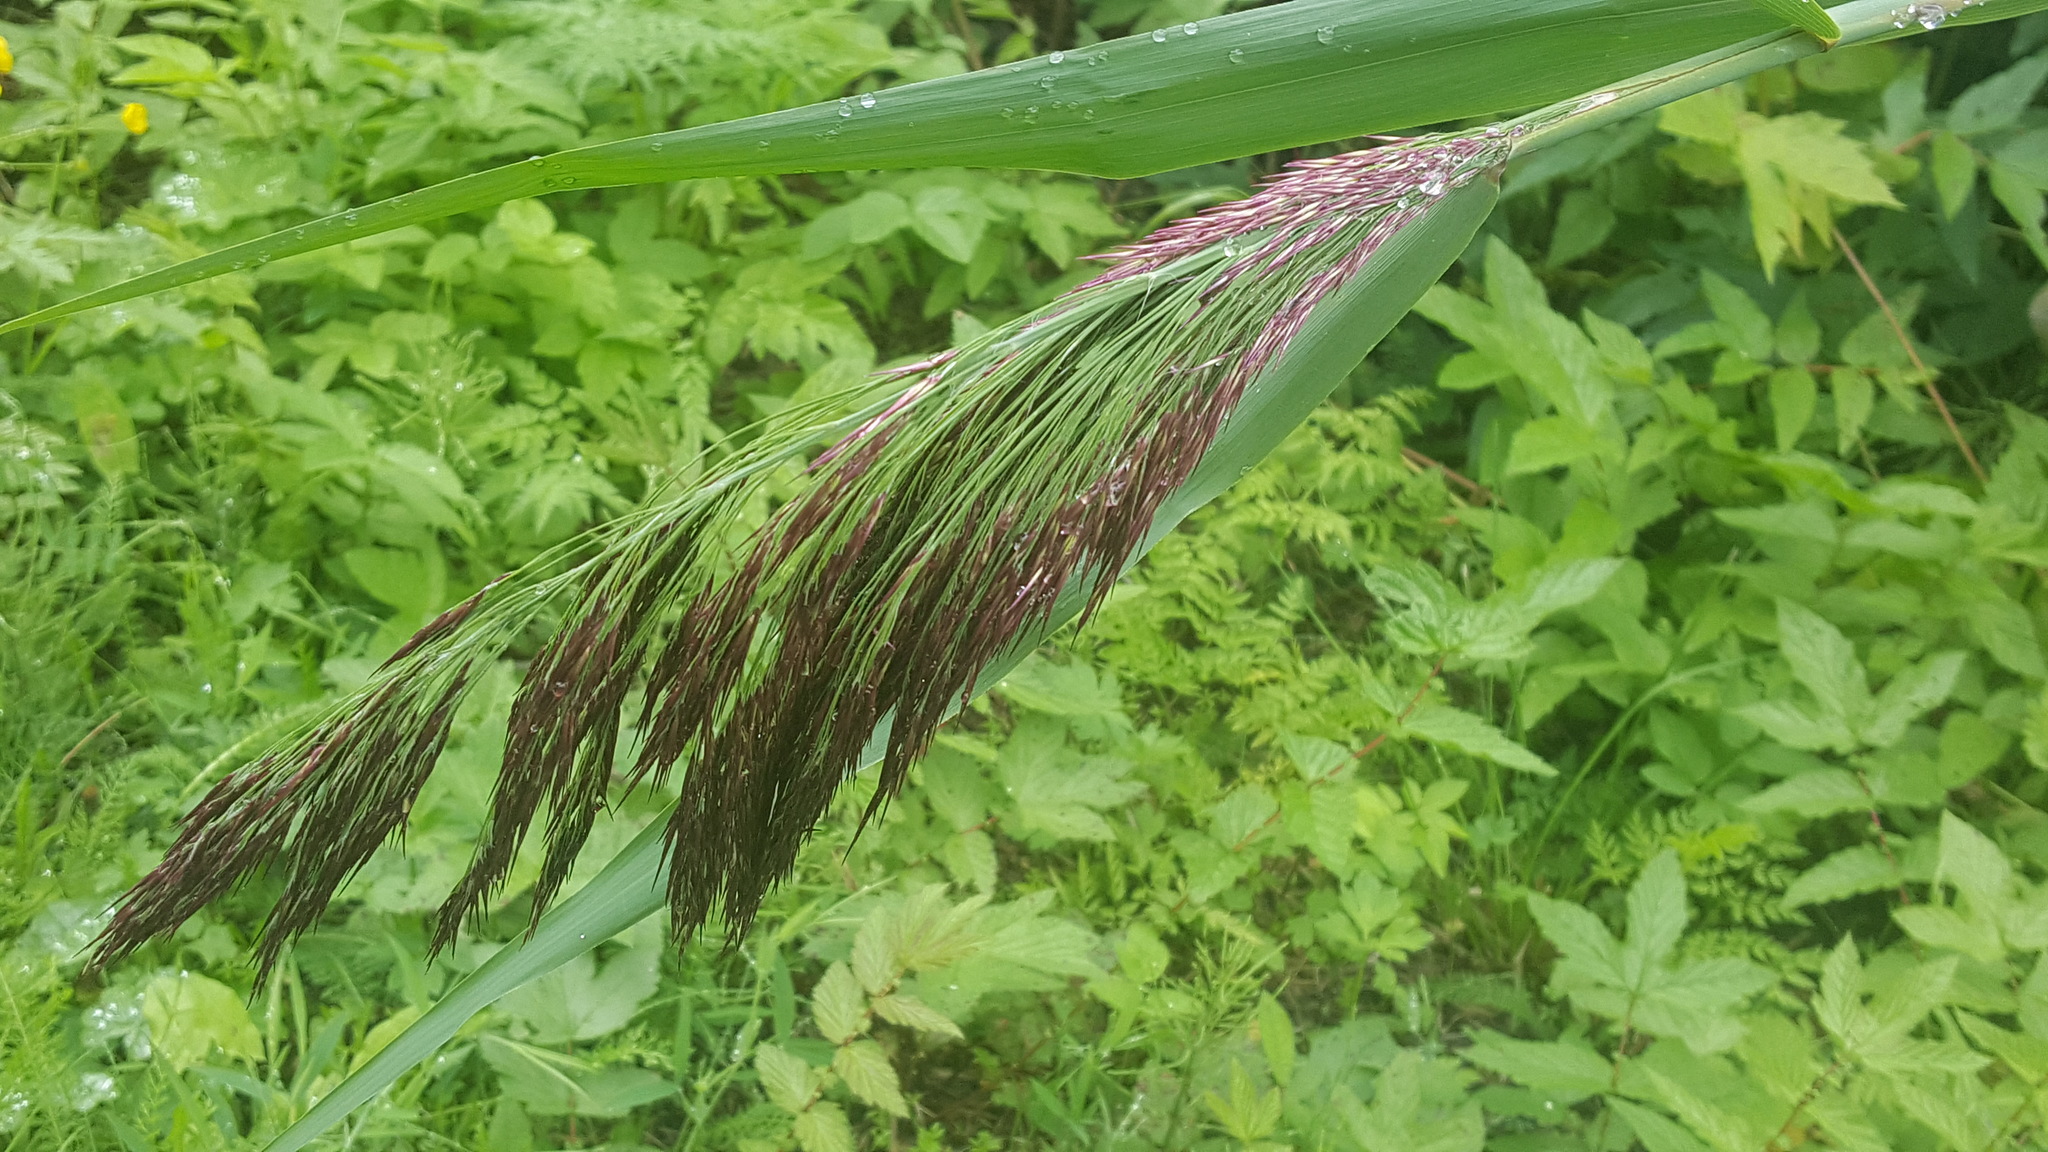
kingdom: Plantae
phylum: Tracheophyta
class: Liliopsida
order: Poales
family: Poaceae
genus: Phragmites
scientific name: Phragmites australis
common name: Common reed
